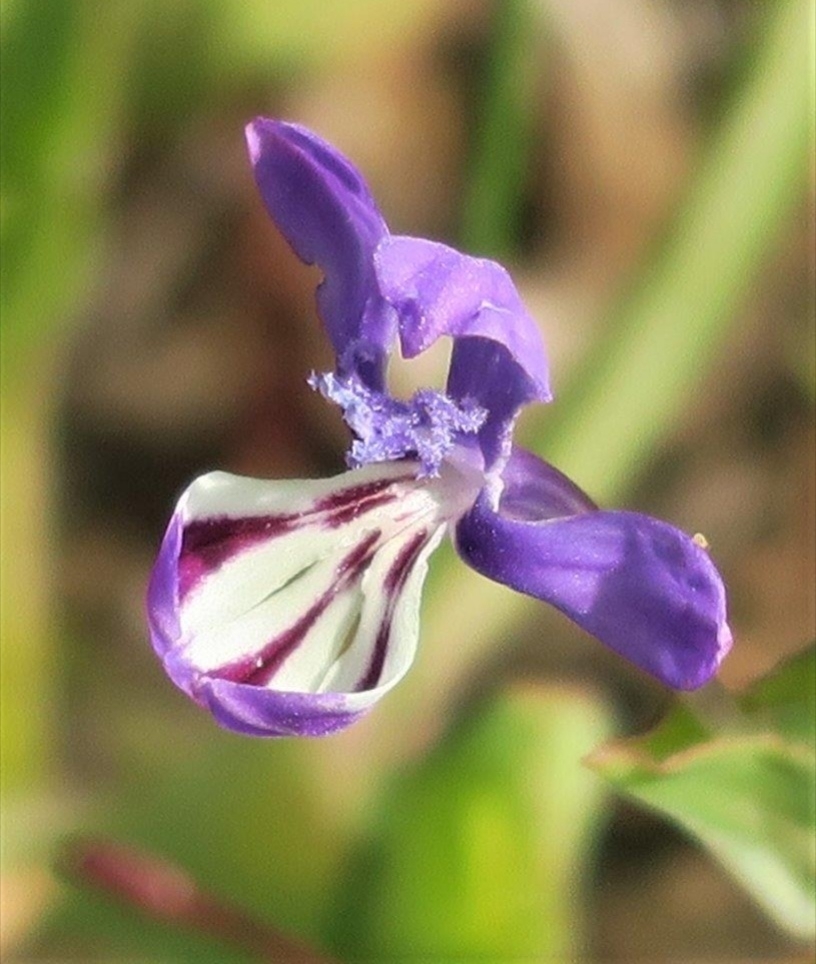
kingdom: Plantae
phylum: Tracheophyta
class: Liliopsida
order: Asparagales
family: Iridaceae
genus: Lapeirousia
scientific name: Lapeirousia jacquinii
